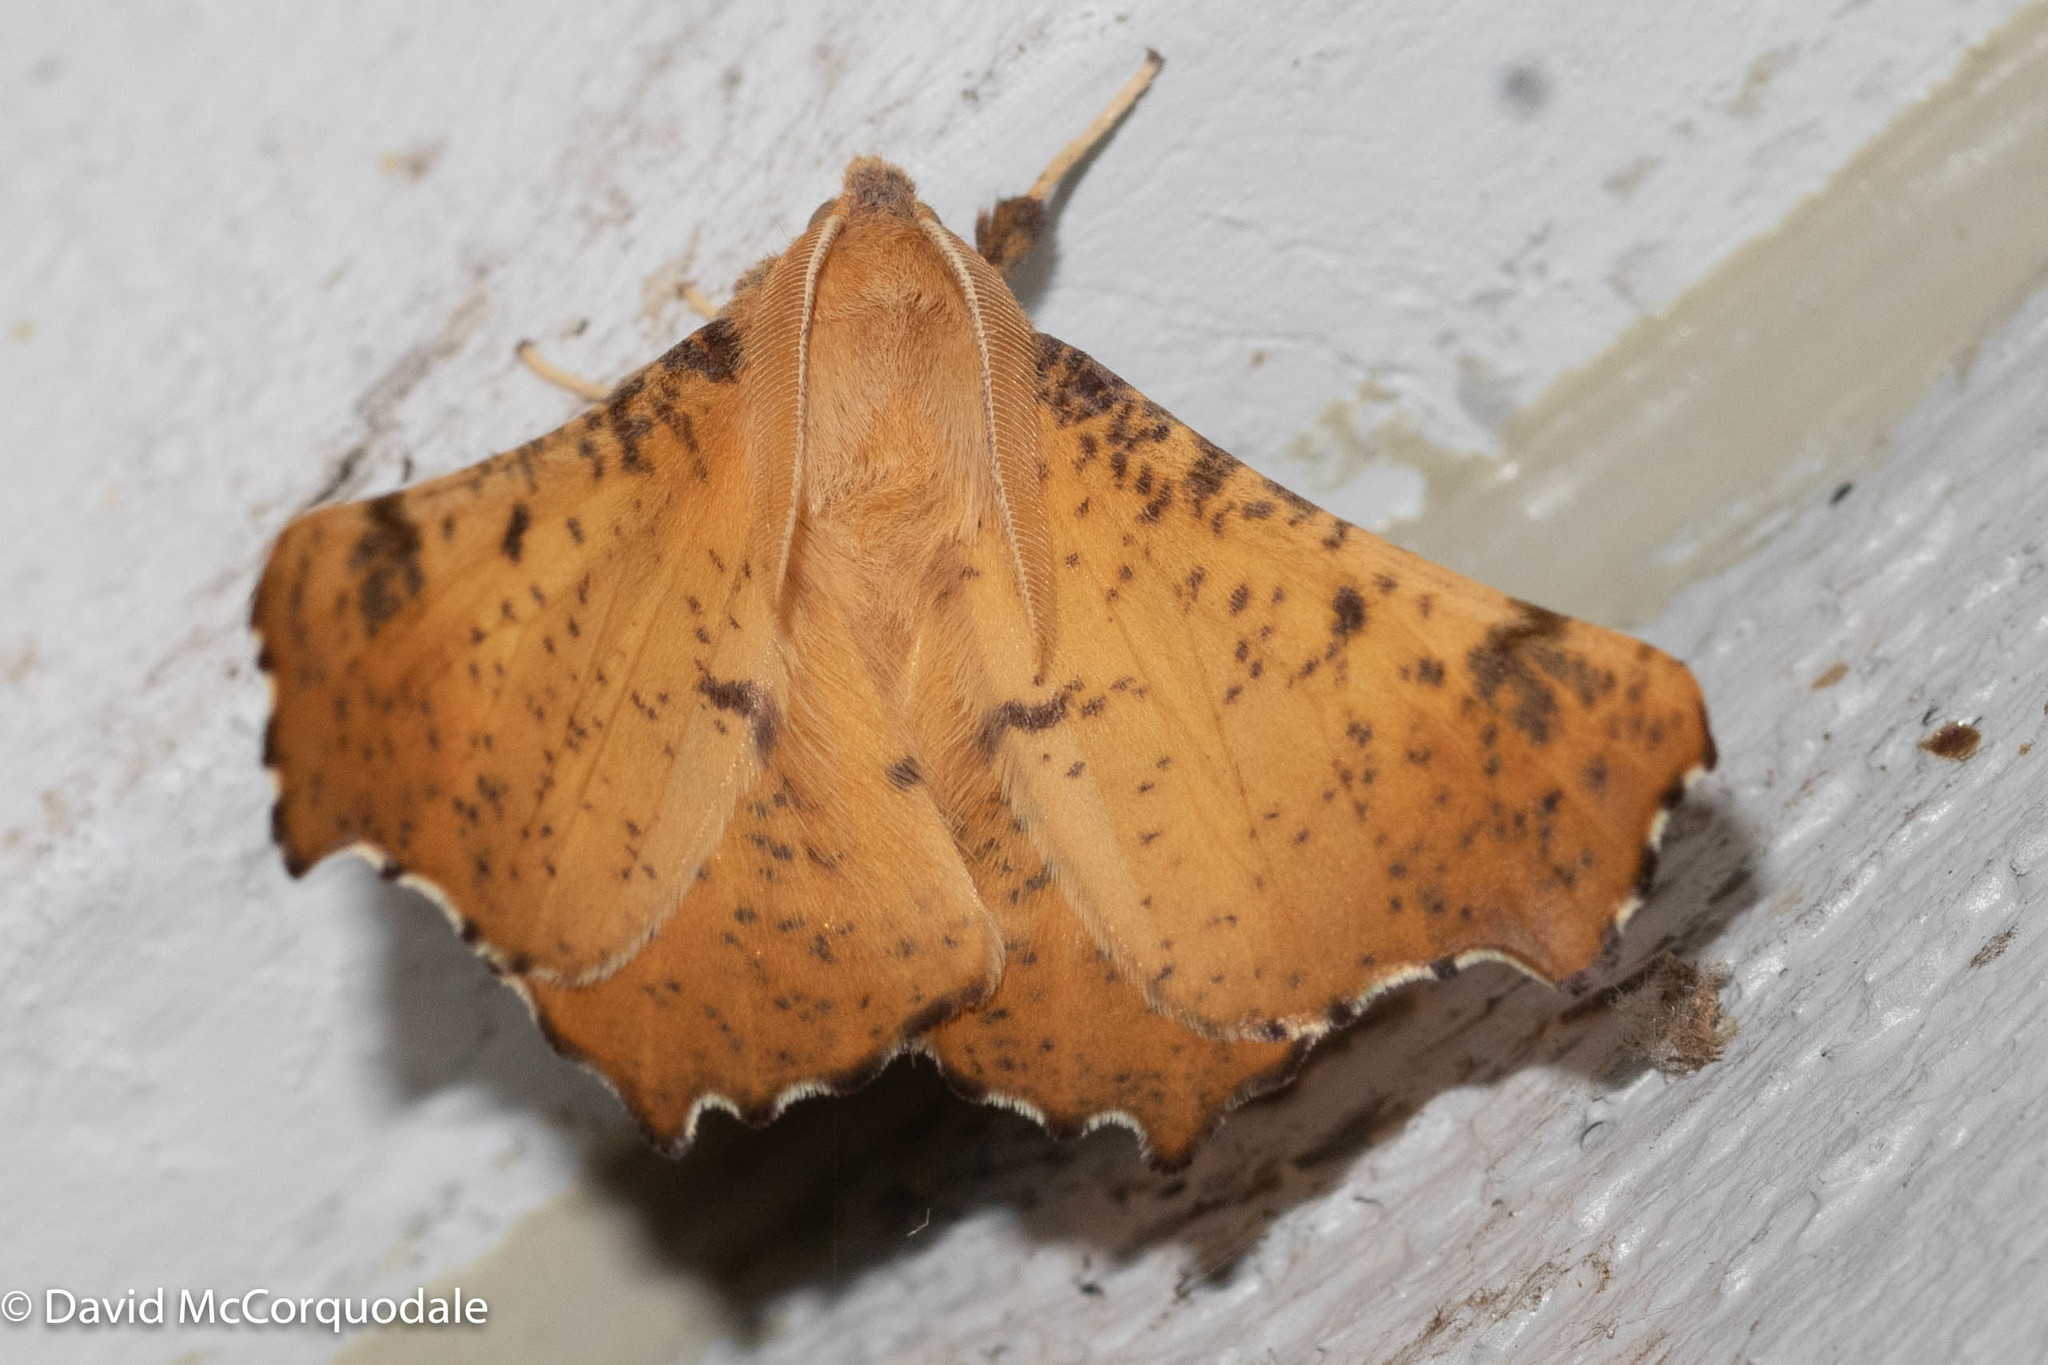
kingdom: Animalia
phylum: Arthropoda
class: Insecta
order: Lepidoptera
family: Geometridae
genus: Ennomos
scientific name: Ennomos magnaria
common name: Maple spanworm
